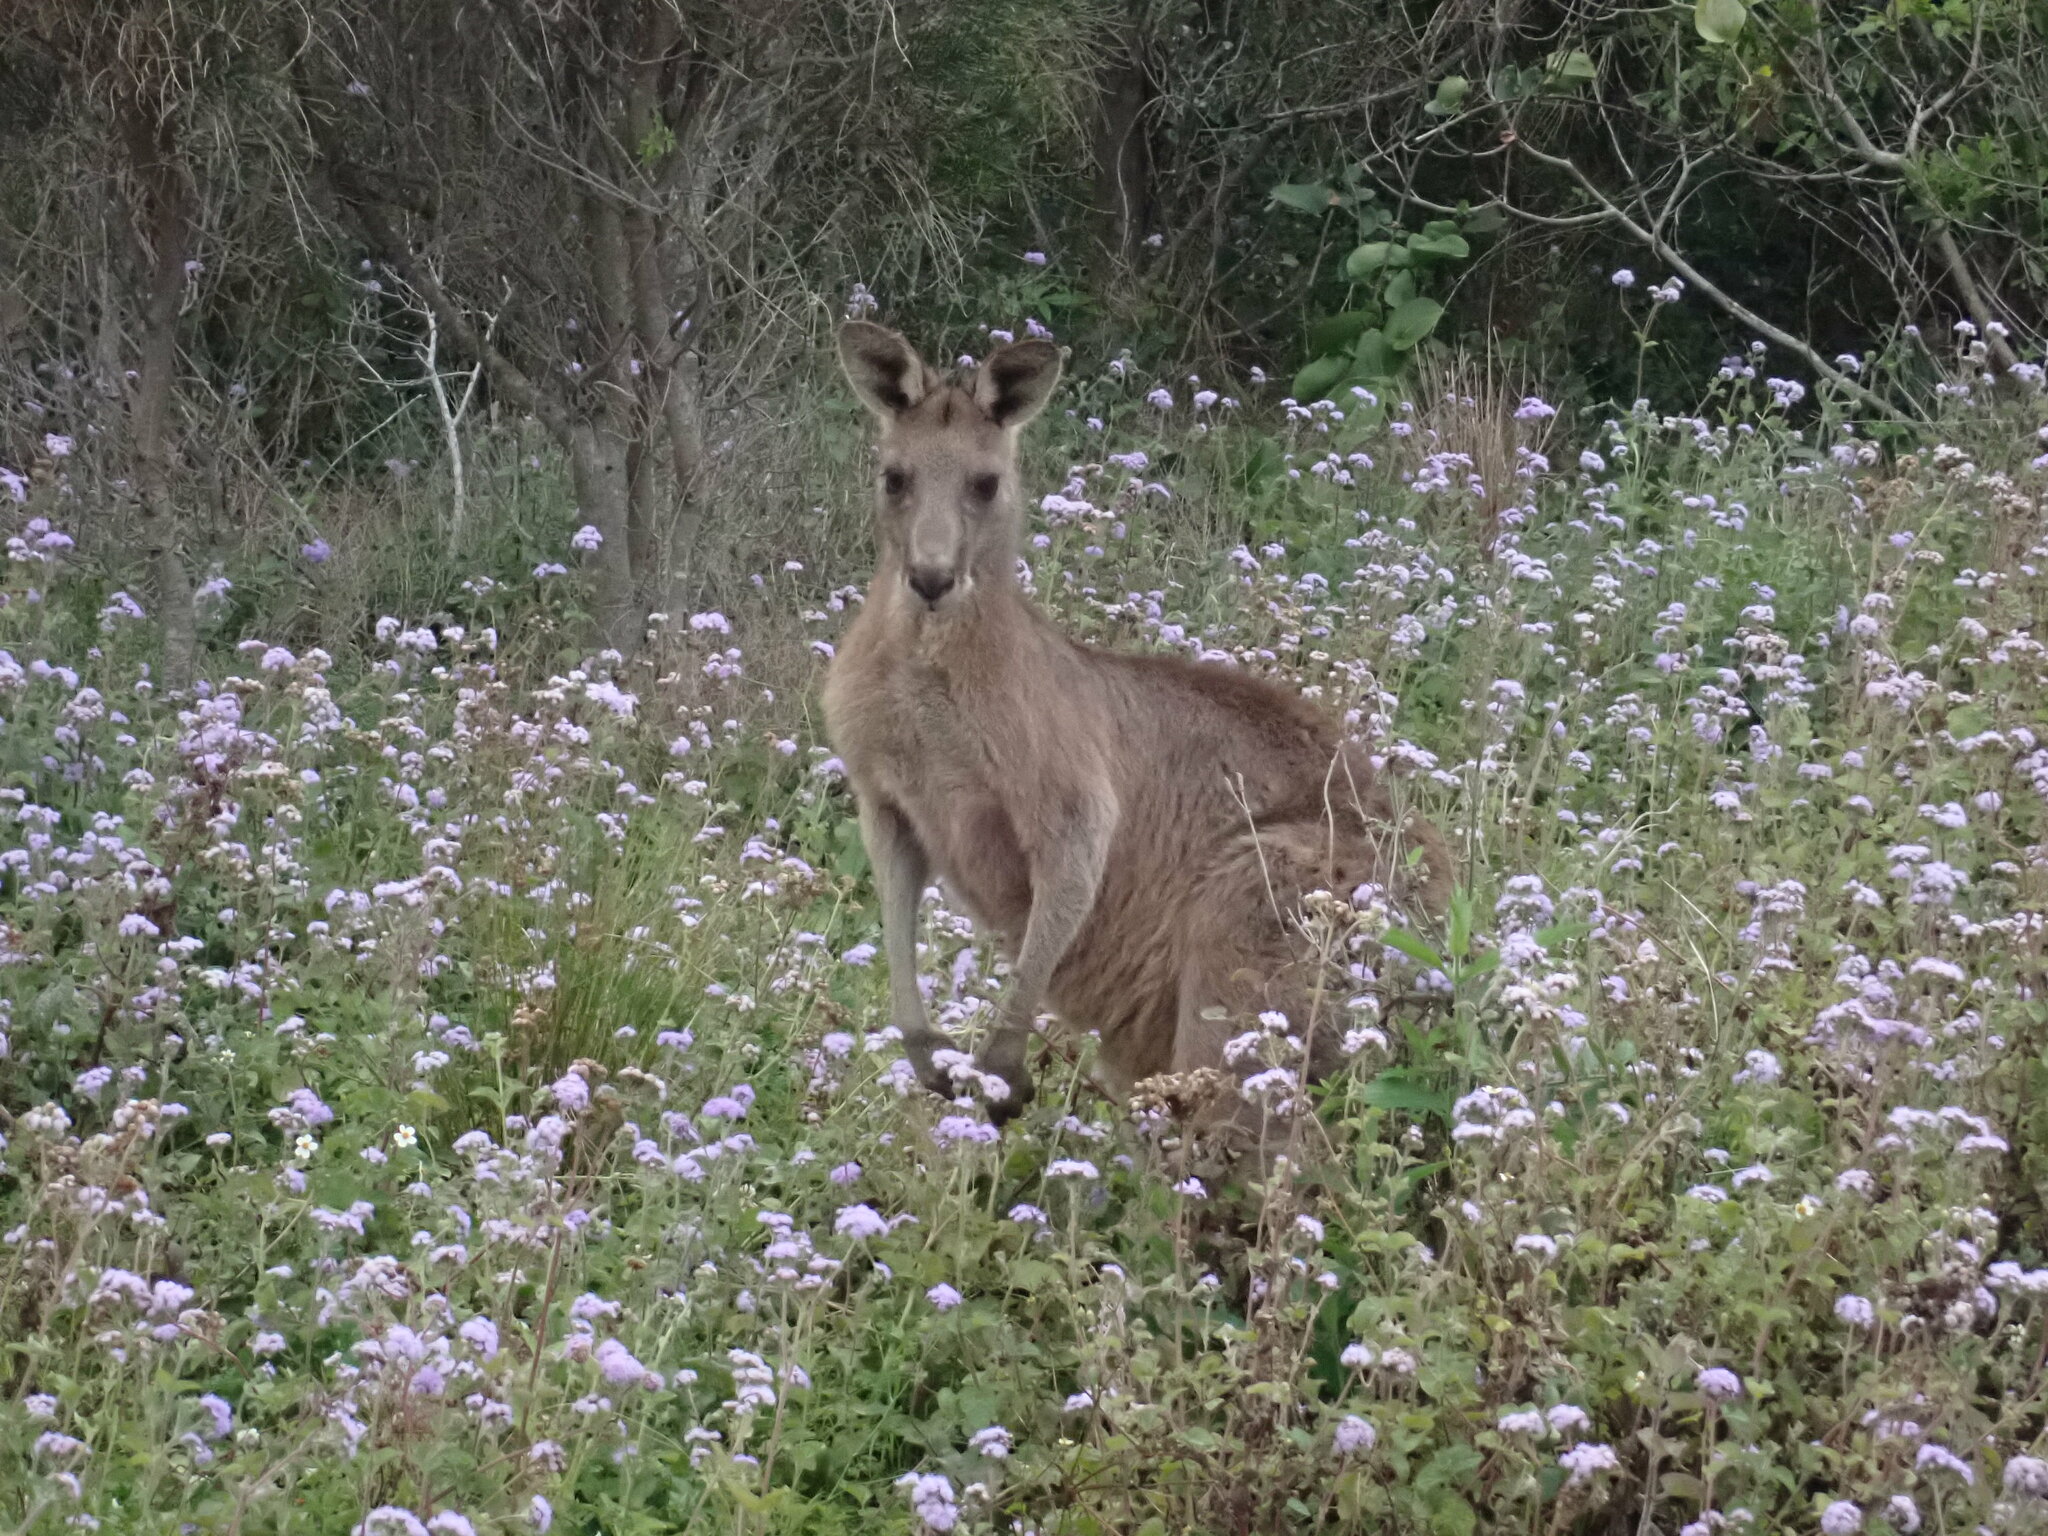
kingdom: Animalia
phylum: Chordata
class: Mammalia
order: Diprotodontia
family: Macropodidae
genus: Macropus
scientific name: Macropus giganteus
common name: Eastern grey kangaroo
